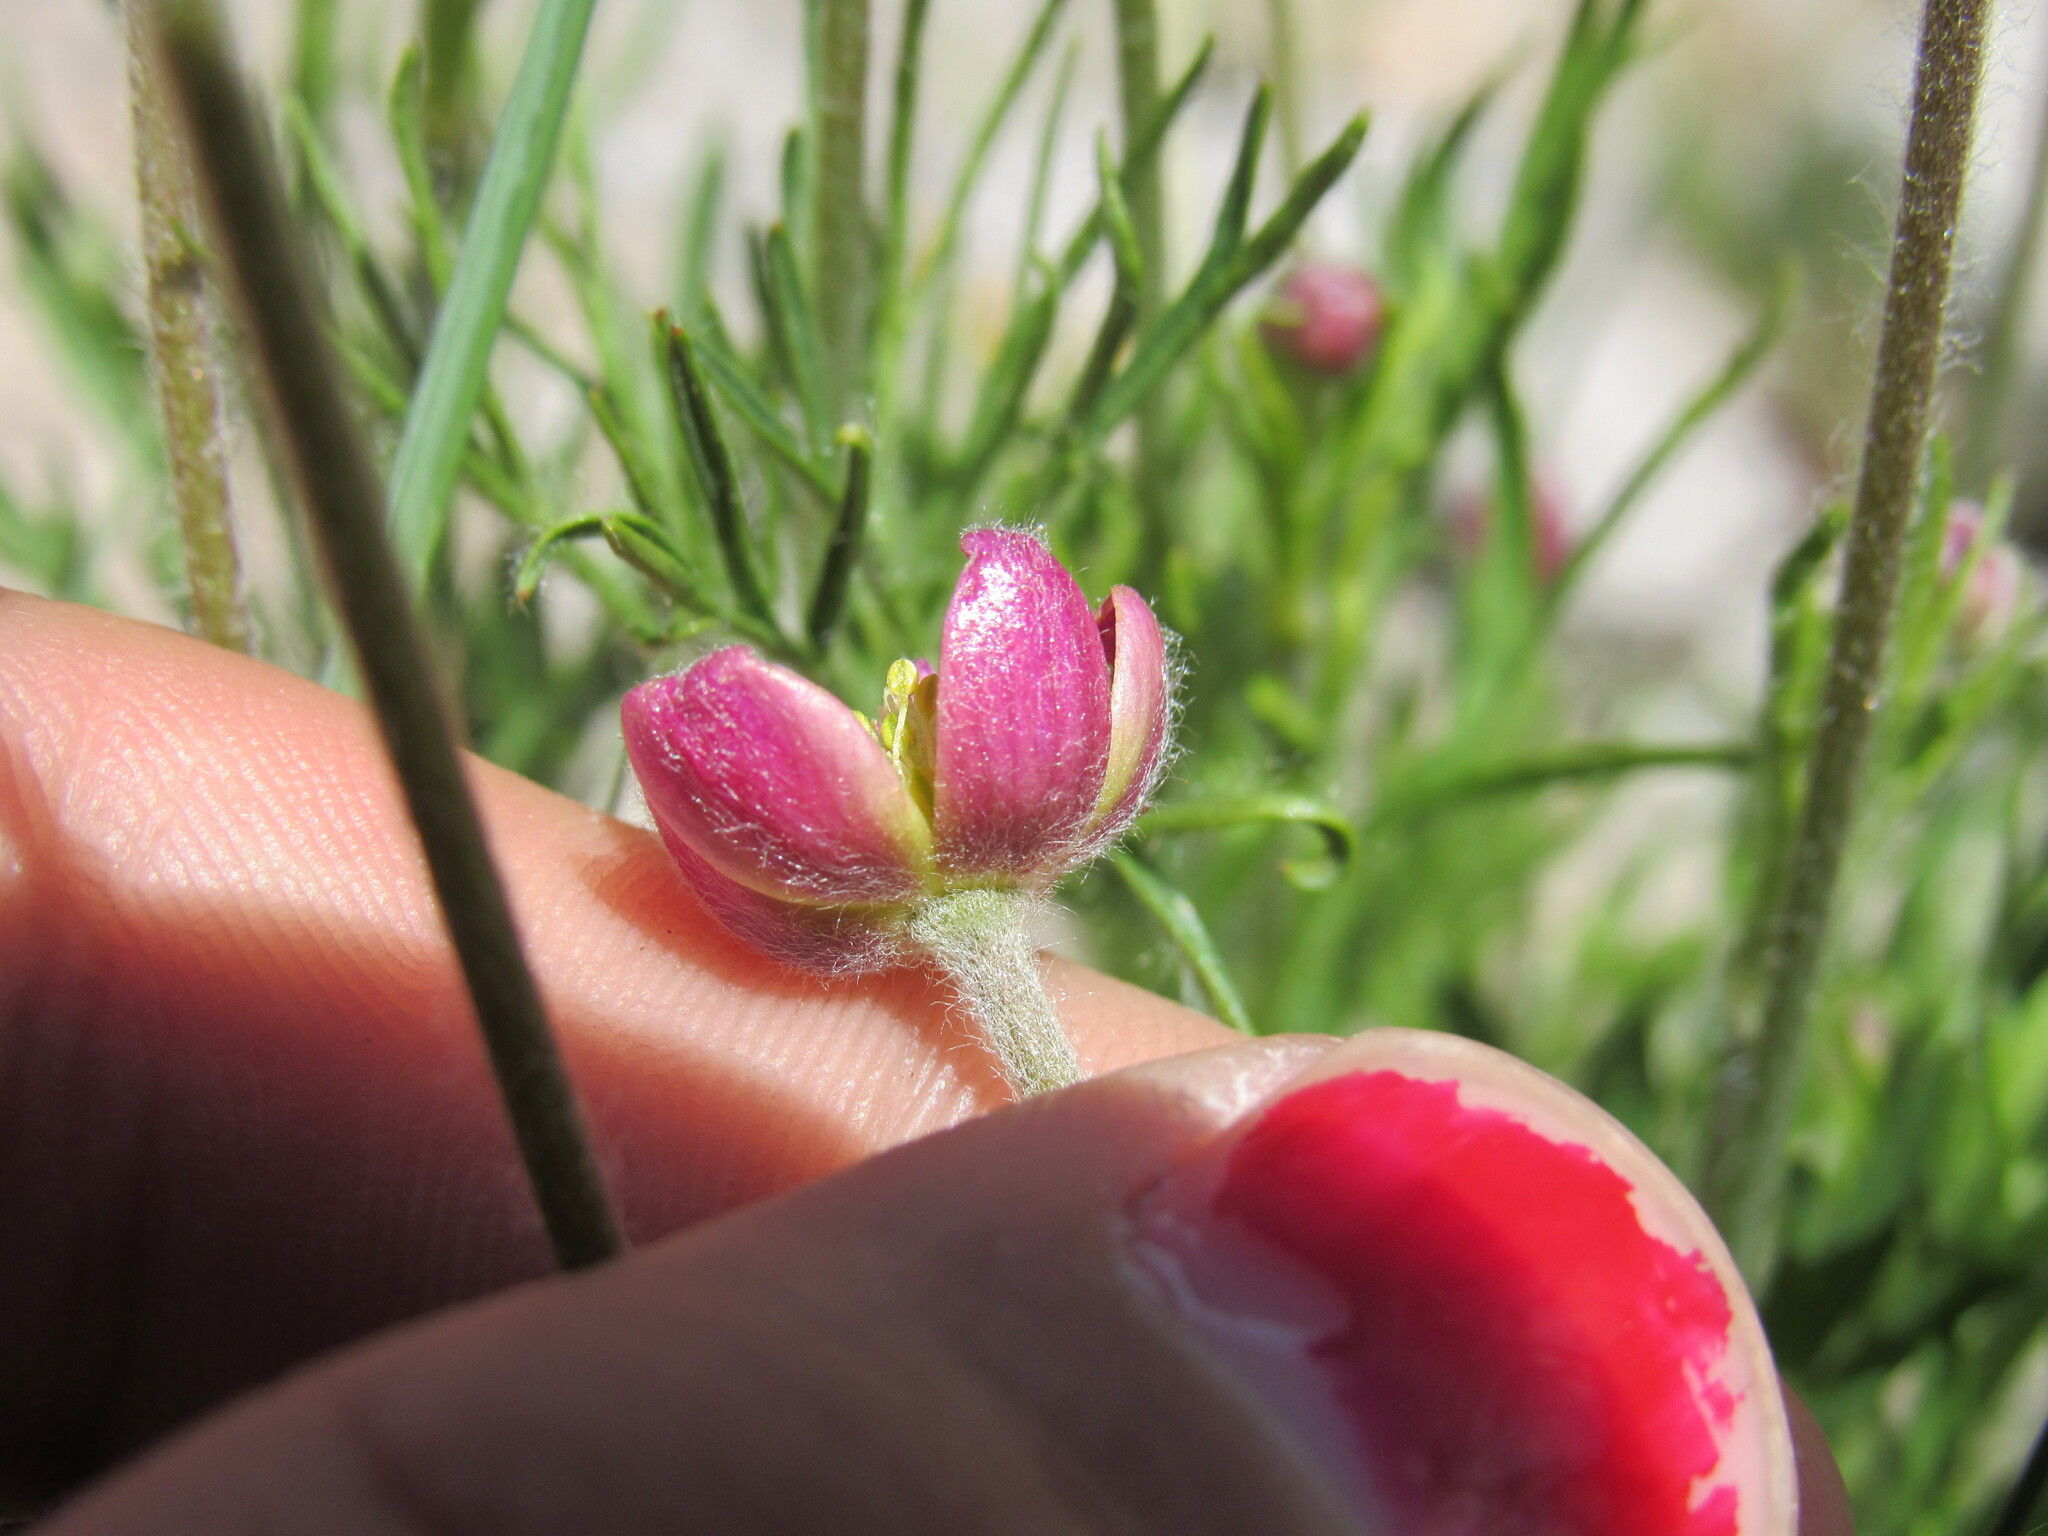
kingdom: Plantae
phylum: Tracheophyta
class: Magnoliopsida
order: Ranunculales
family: Ranunculaceae
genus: Anemone
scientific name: Anemone multifida
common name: Bird's-foot anemone
